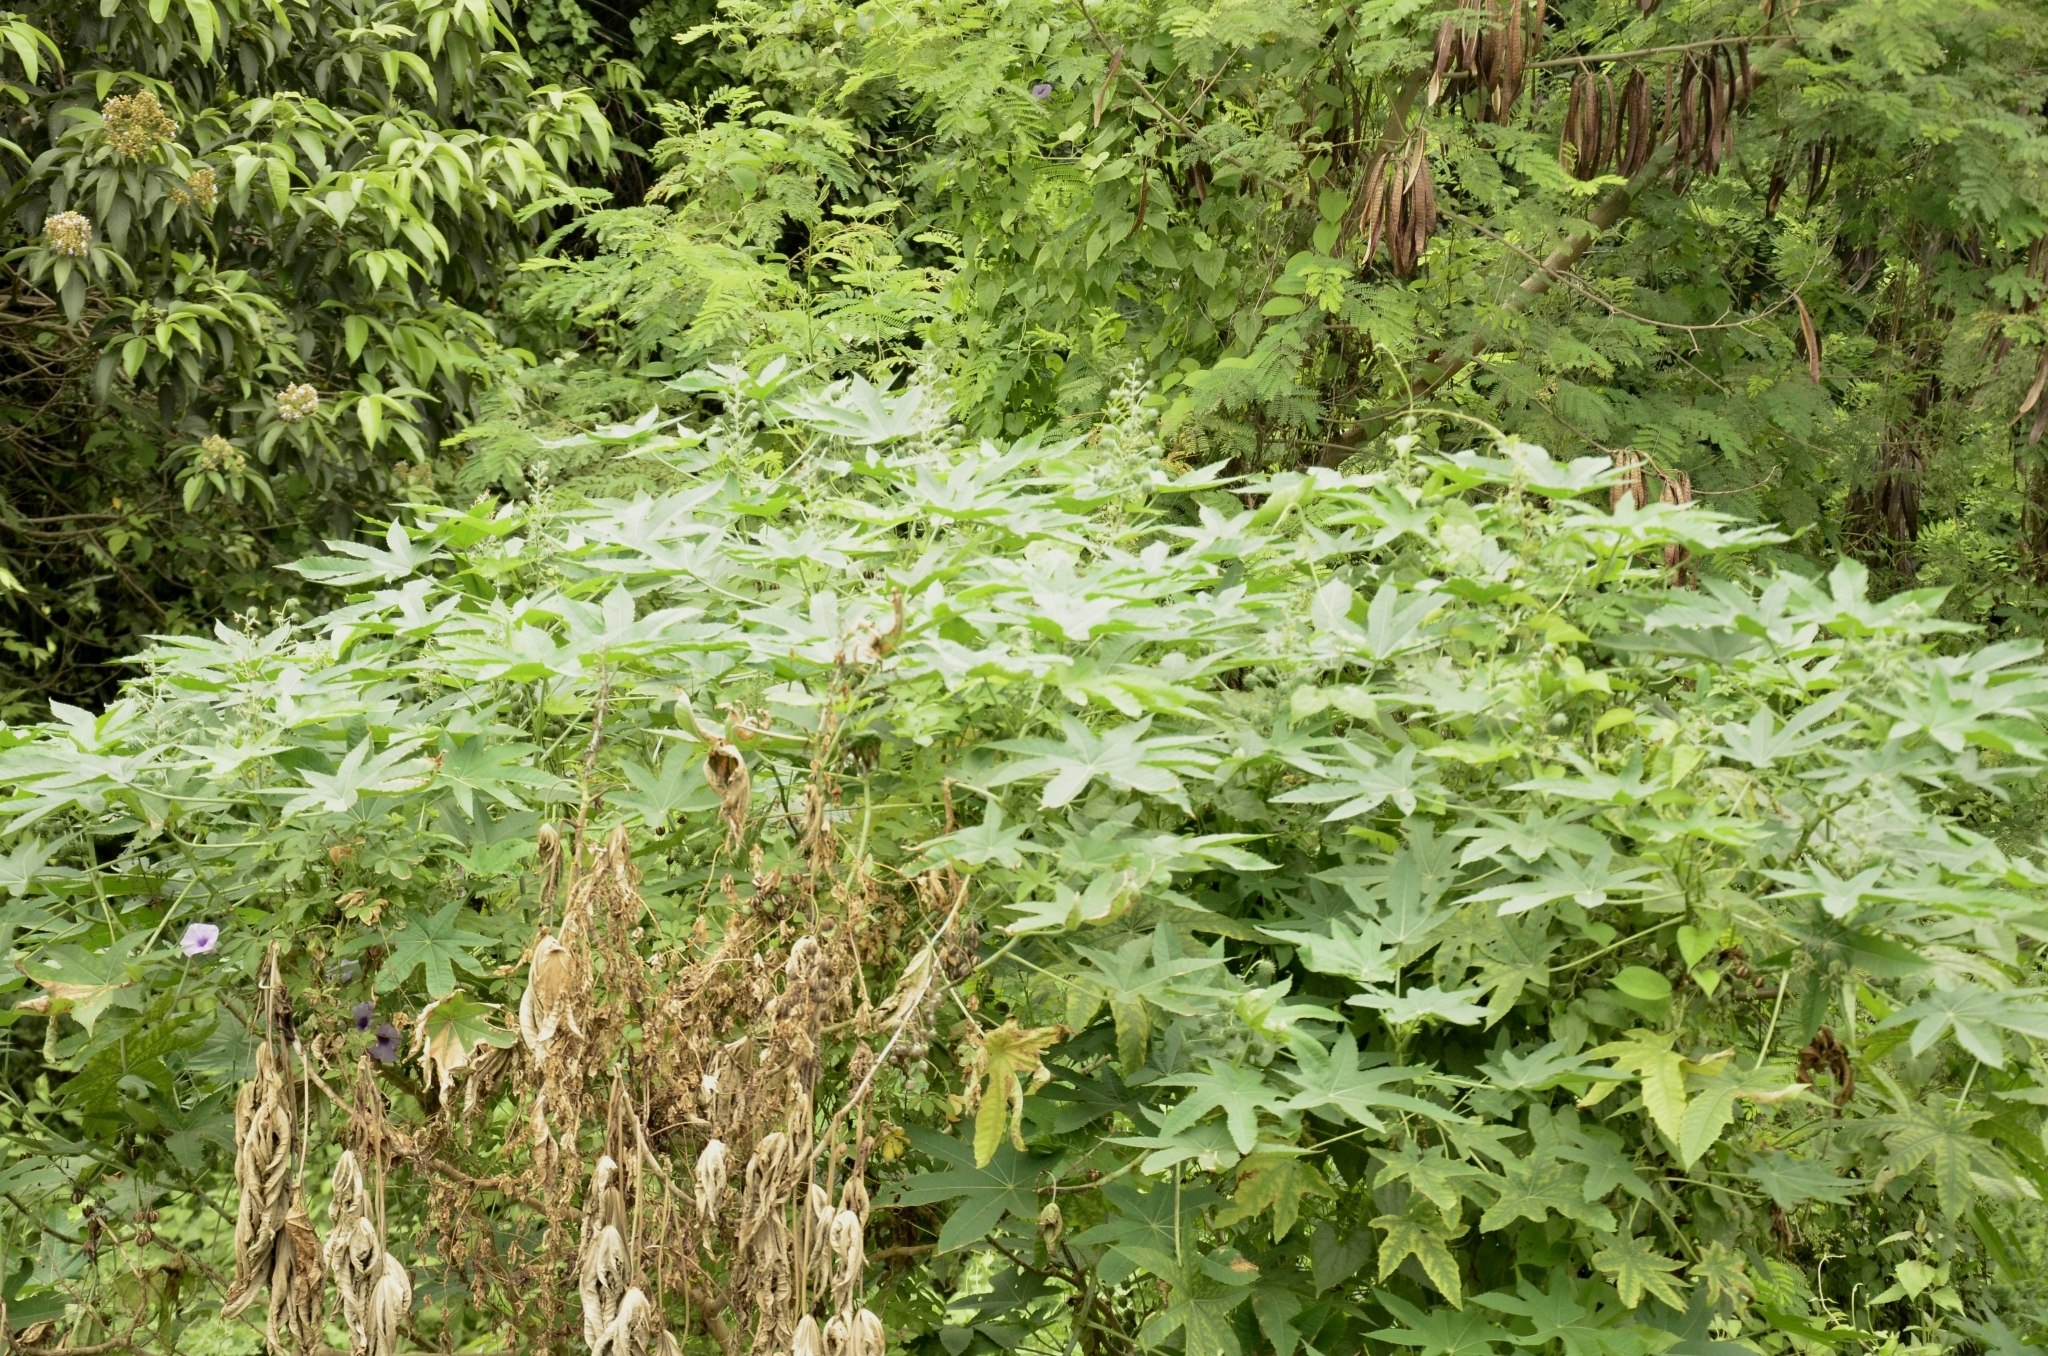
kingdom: Plantae
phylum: Tracheophyta
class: Magnoliopsida
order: Malpighiales
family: Euphorbiaceae
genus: Ricinus
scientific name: Ricinus communis
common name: Castor-oil-plant
